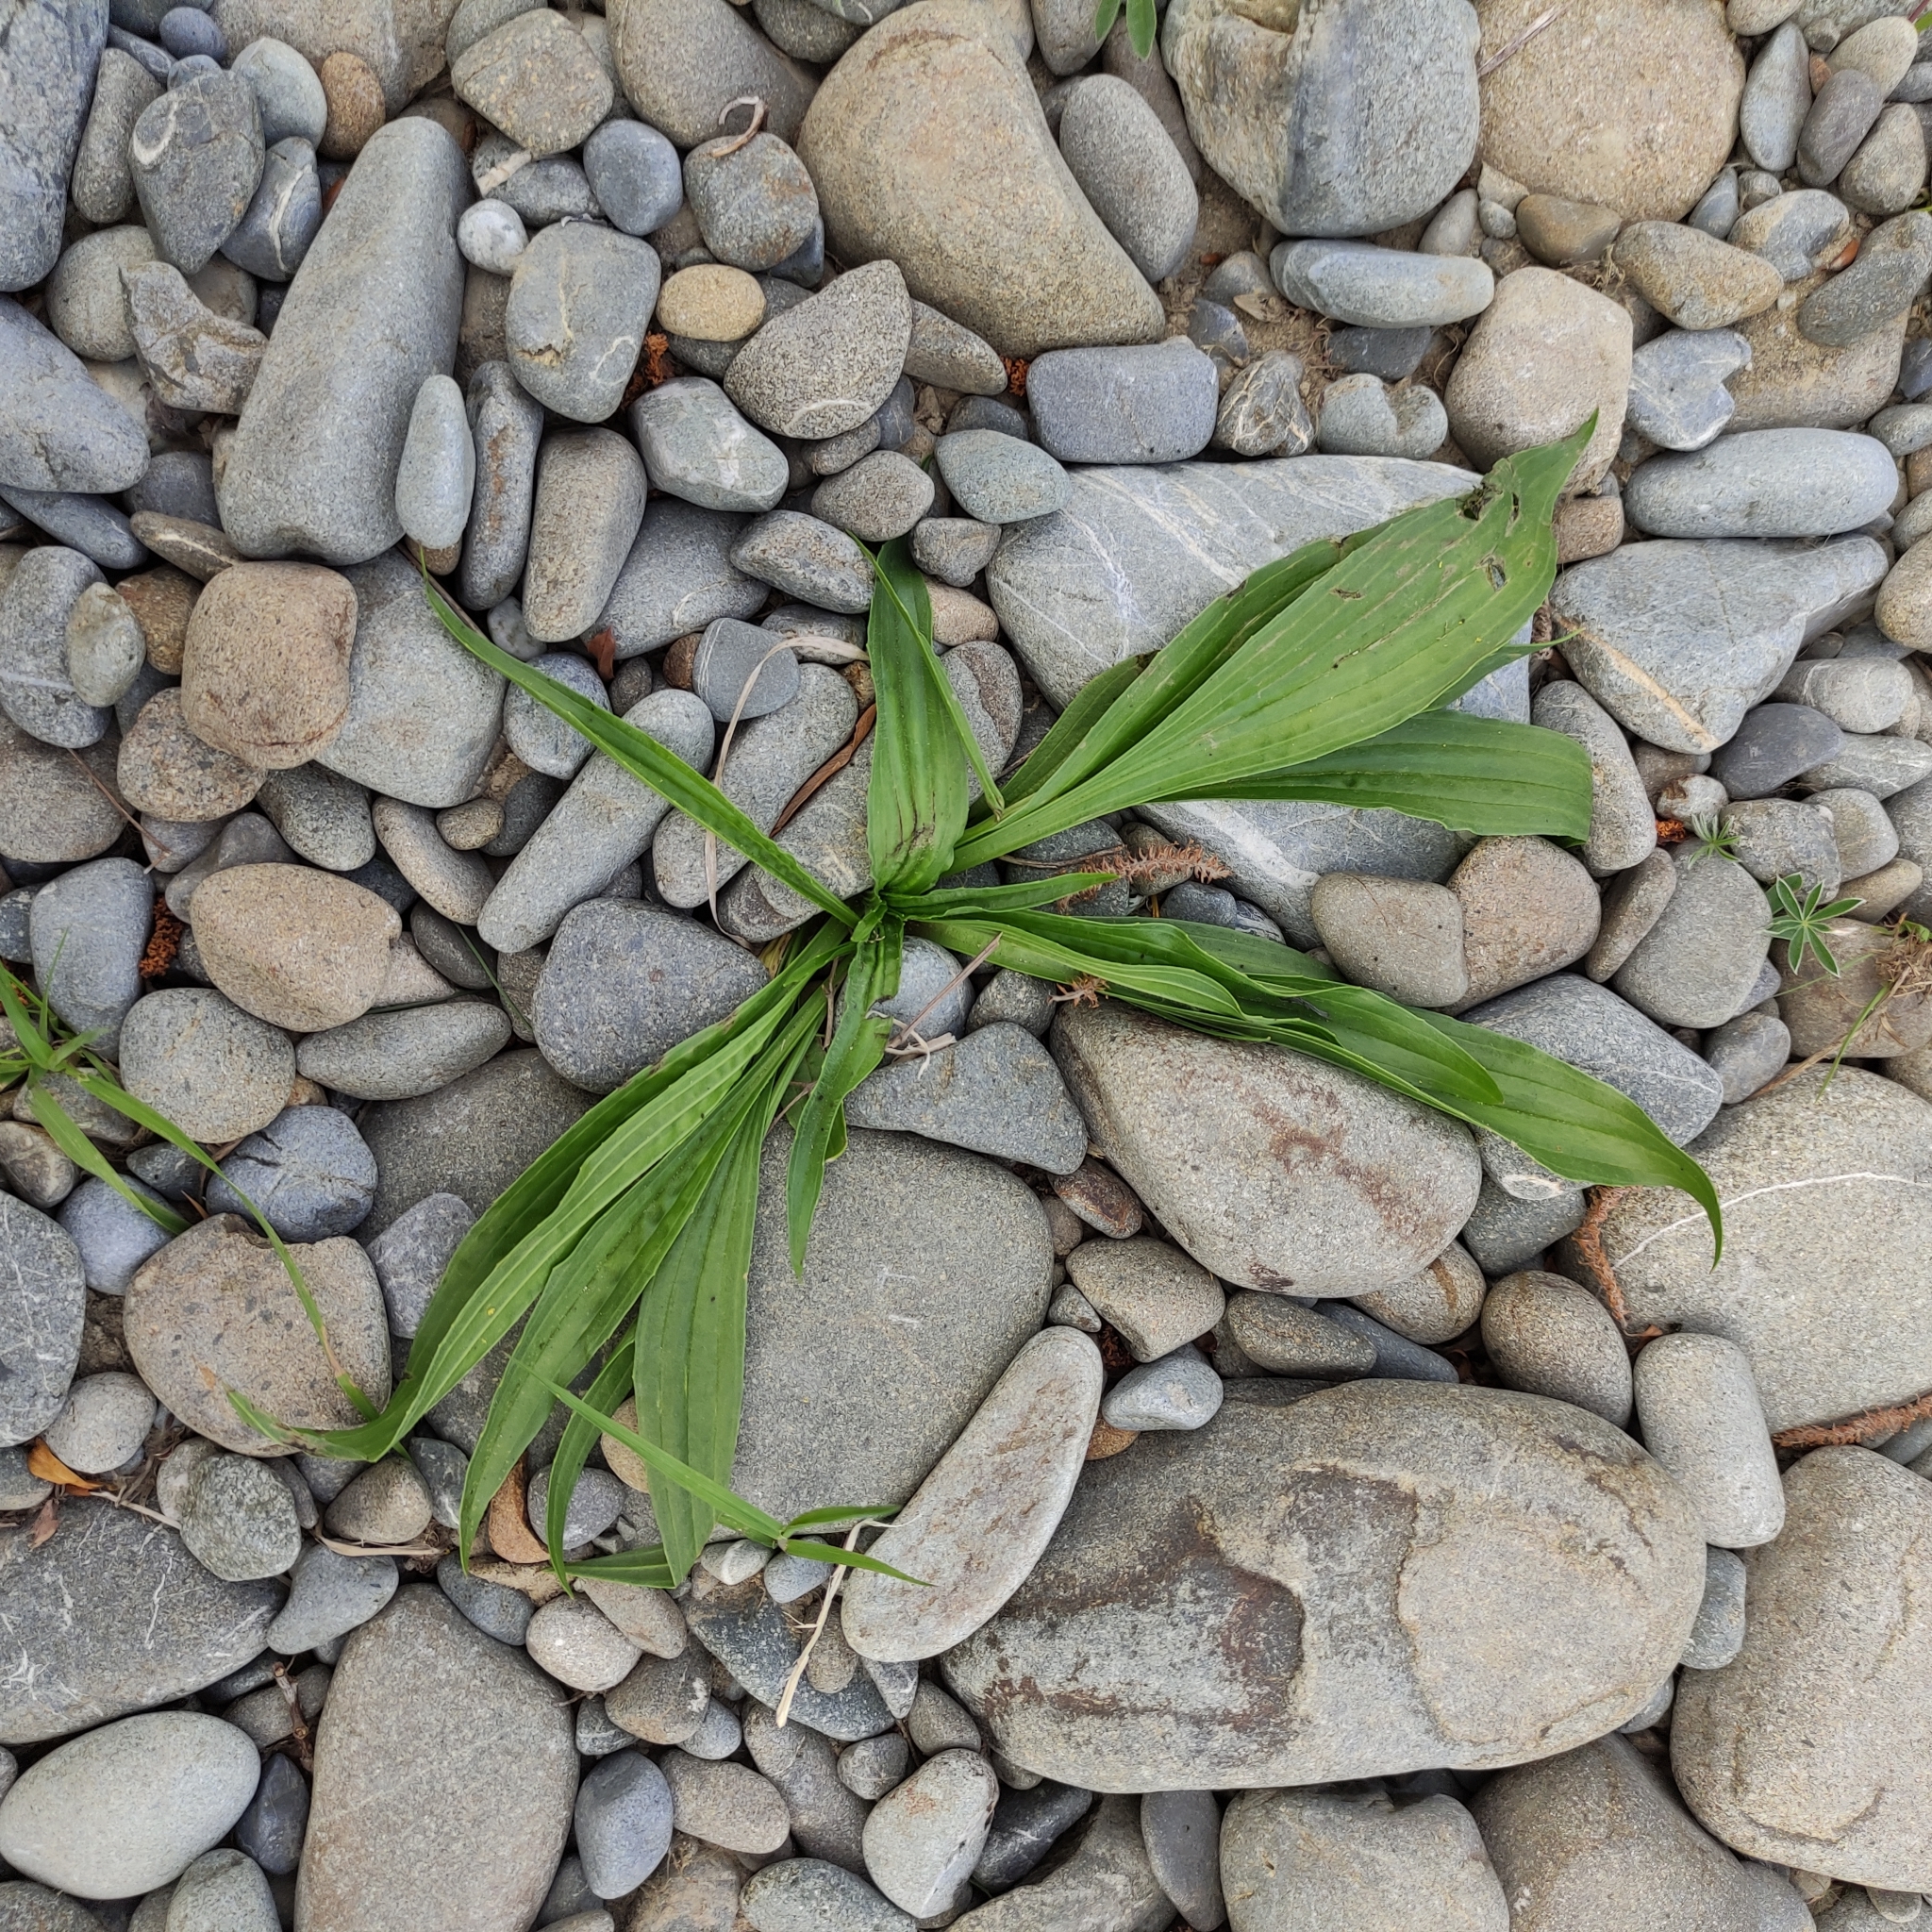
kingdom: Plantae
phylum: Tracheophyta
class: Magnoliopsida
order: Lamiales
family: Plantaginaceae
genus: Plantago
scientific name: Plantago lanceolata
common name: Ribwort plantain
